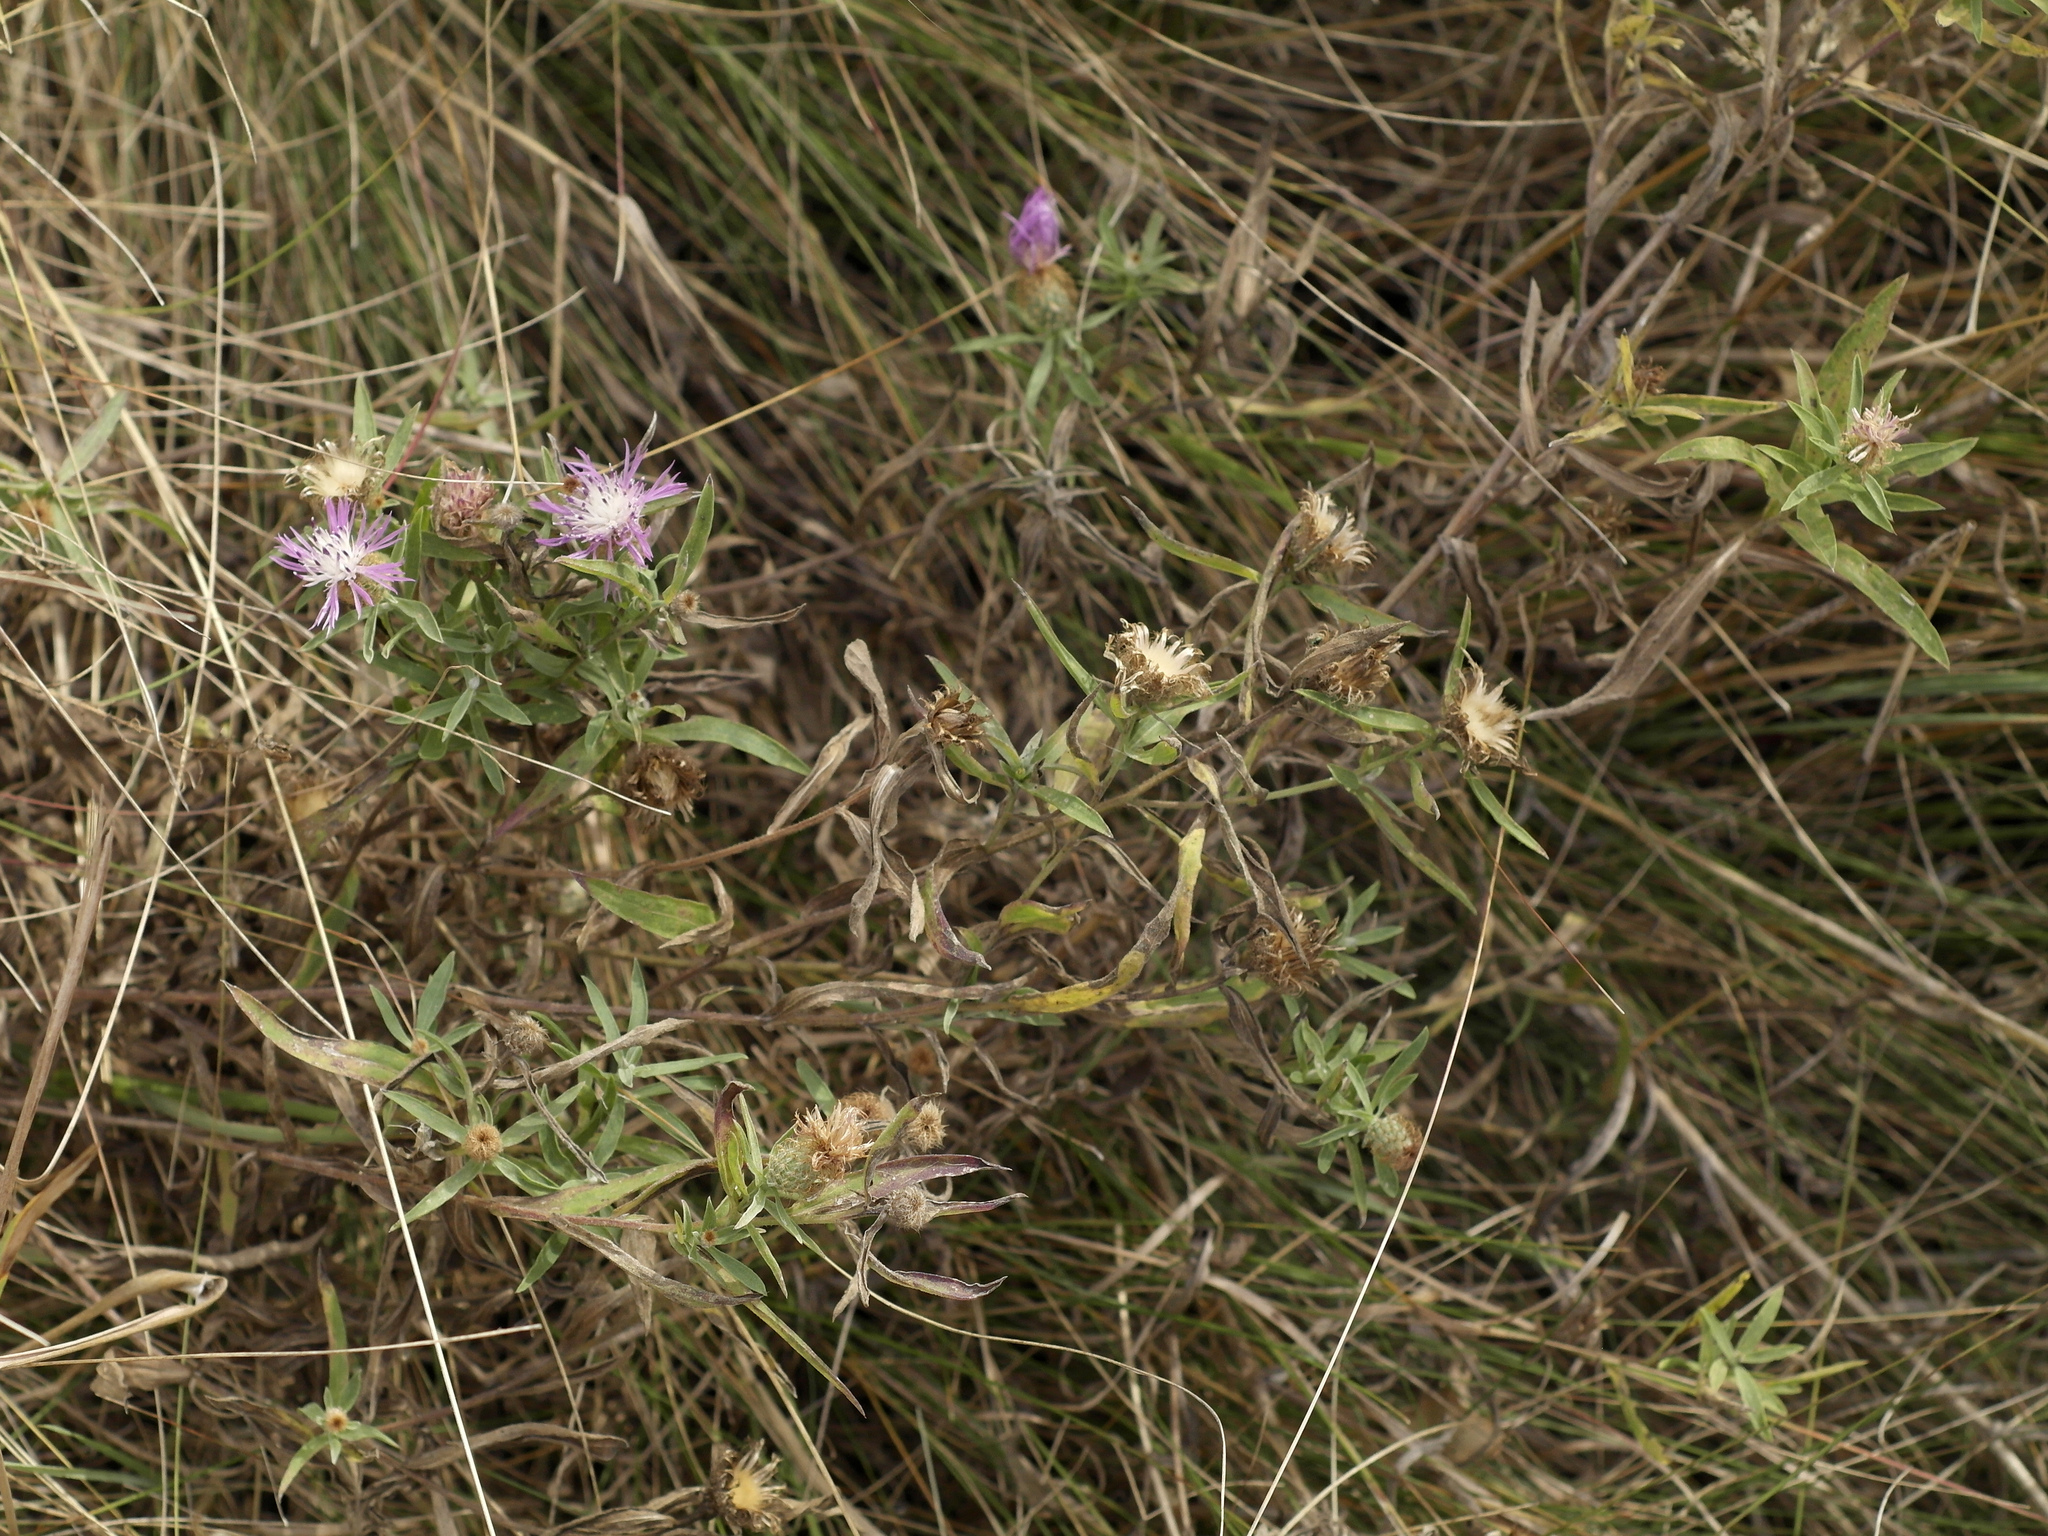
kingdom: Plantae
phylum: Tracheophyta
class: Magnoliopsida
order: Asterales
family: Asteraceae
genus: Centaurea
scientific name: Centaurea trichocephala
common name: Feather-head knapweed
